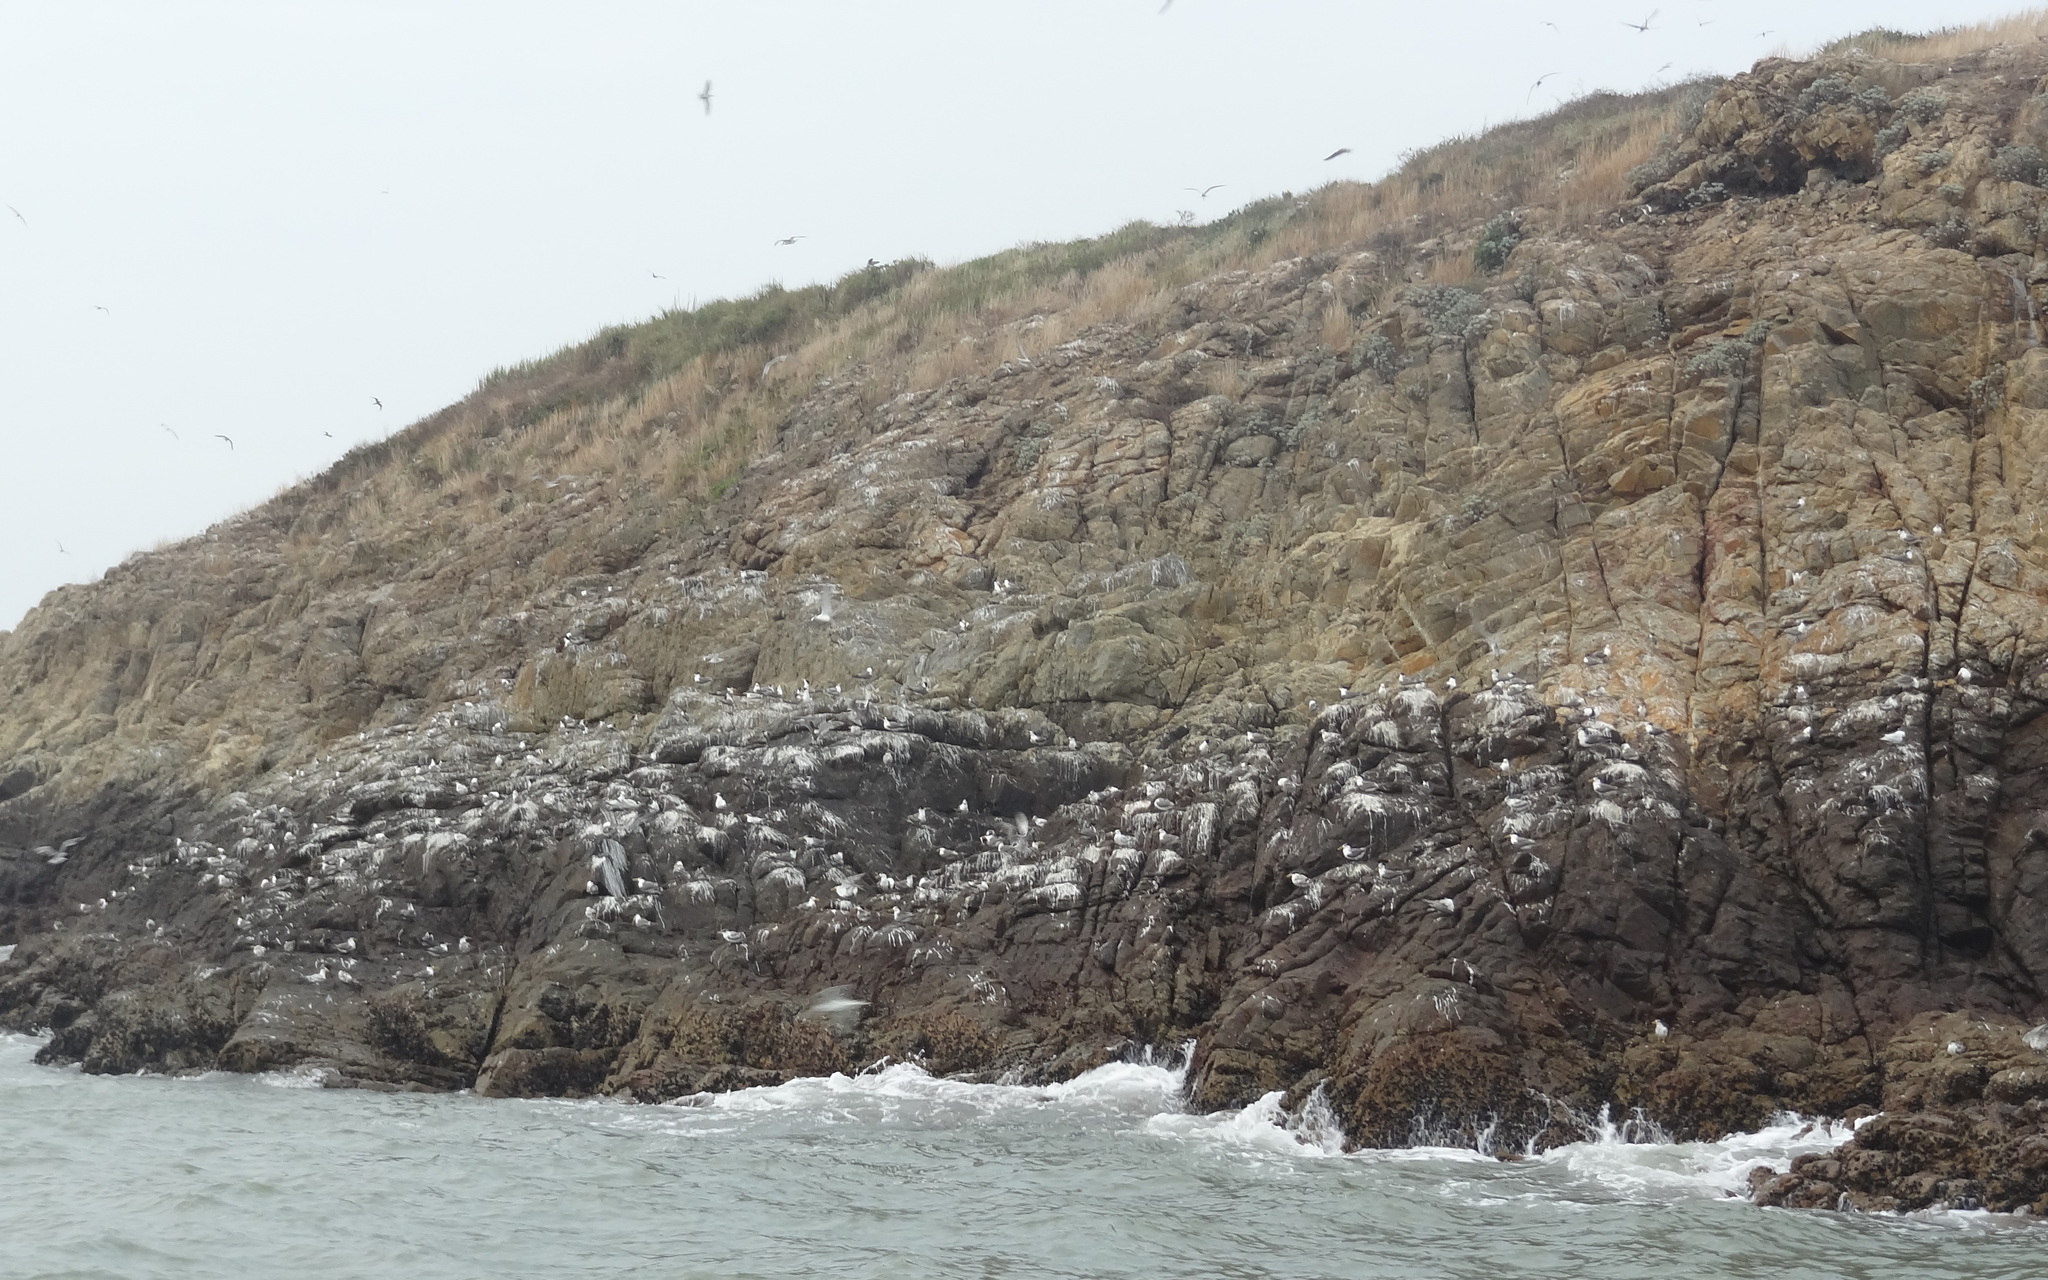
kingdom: Animalia
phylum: Chordata
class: Aves
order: Charadriiformes
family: Laridae
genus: Thalasseus
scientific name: Thalasseus bergii
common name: Greater crested tern
